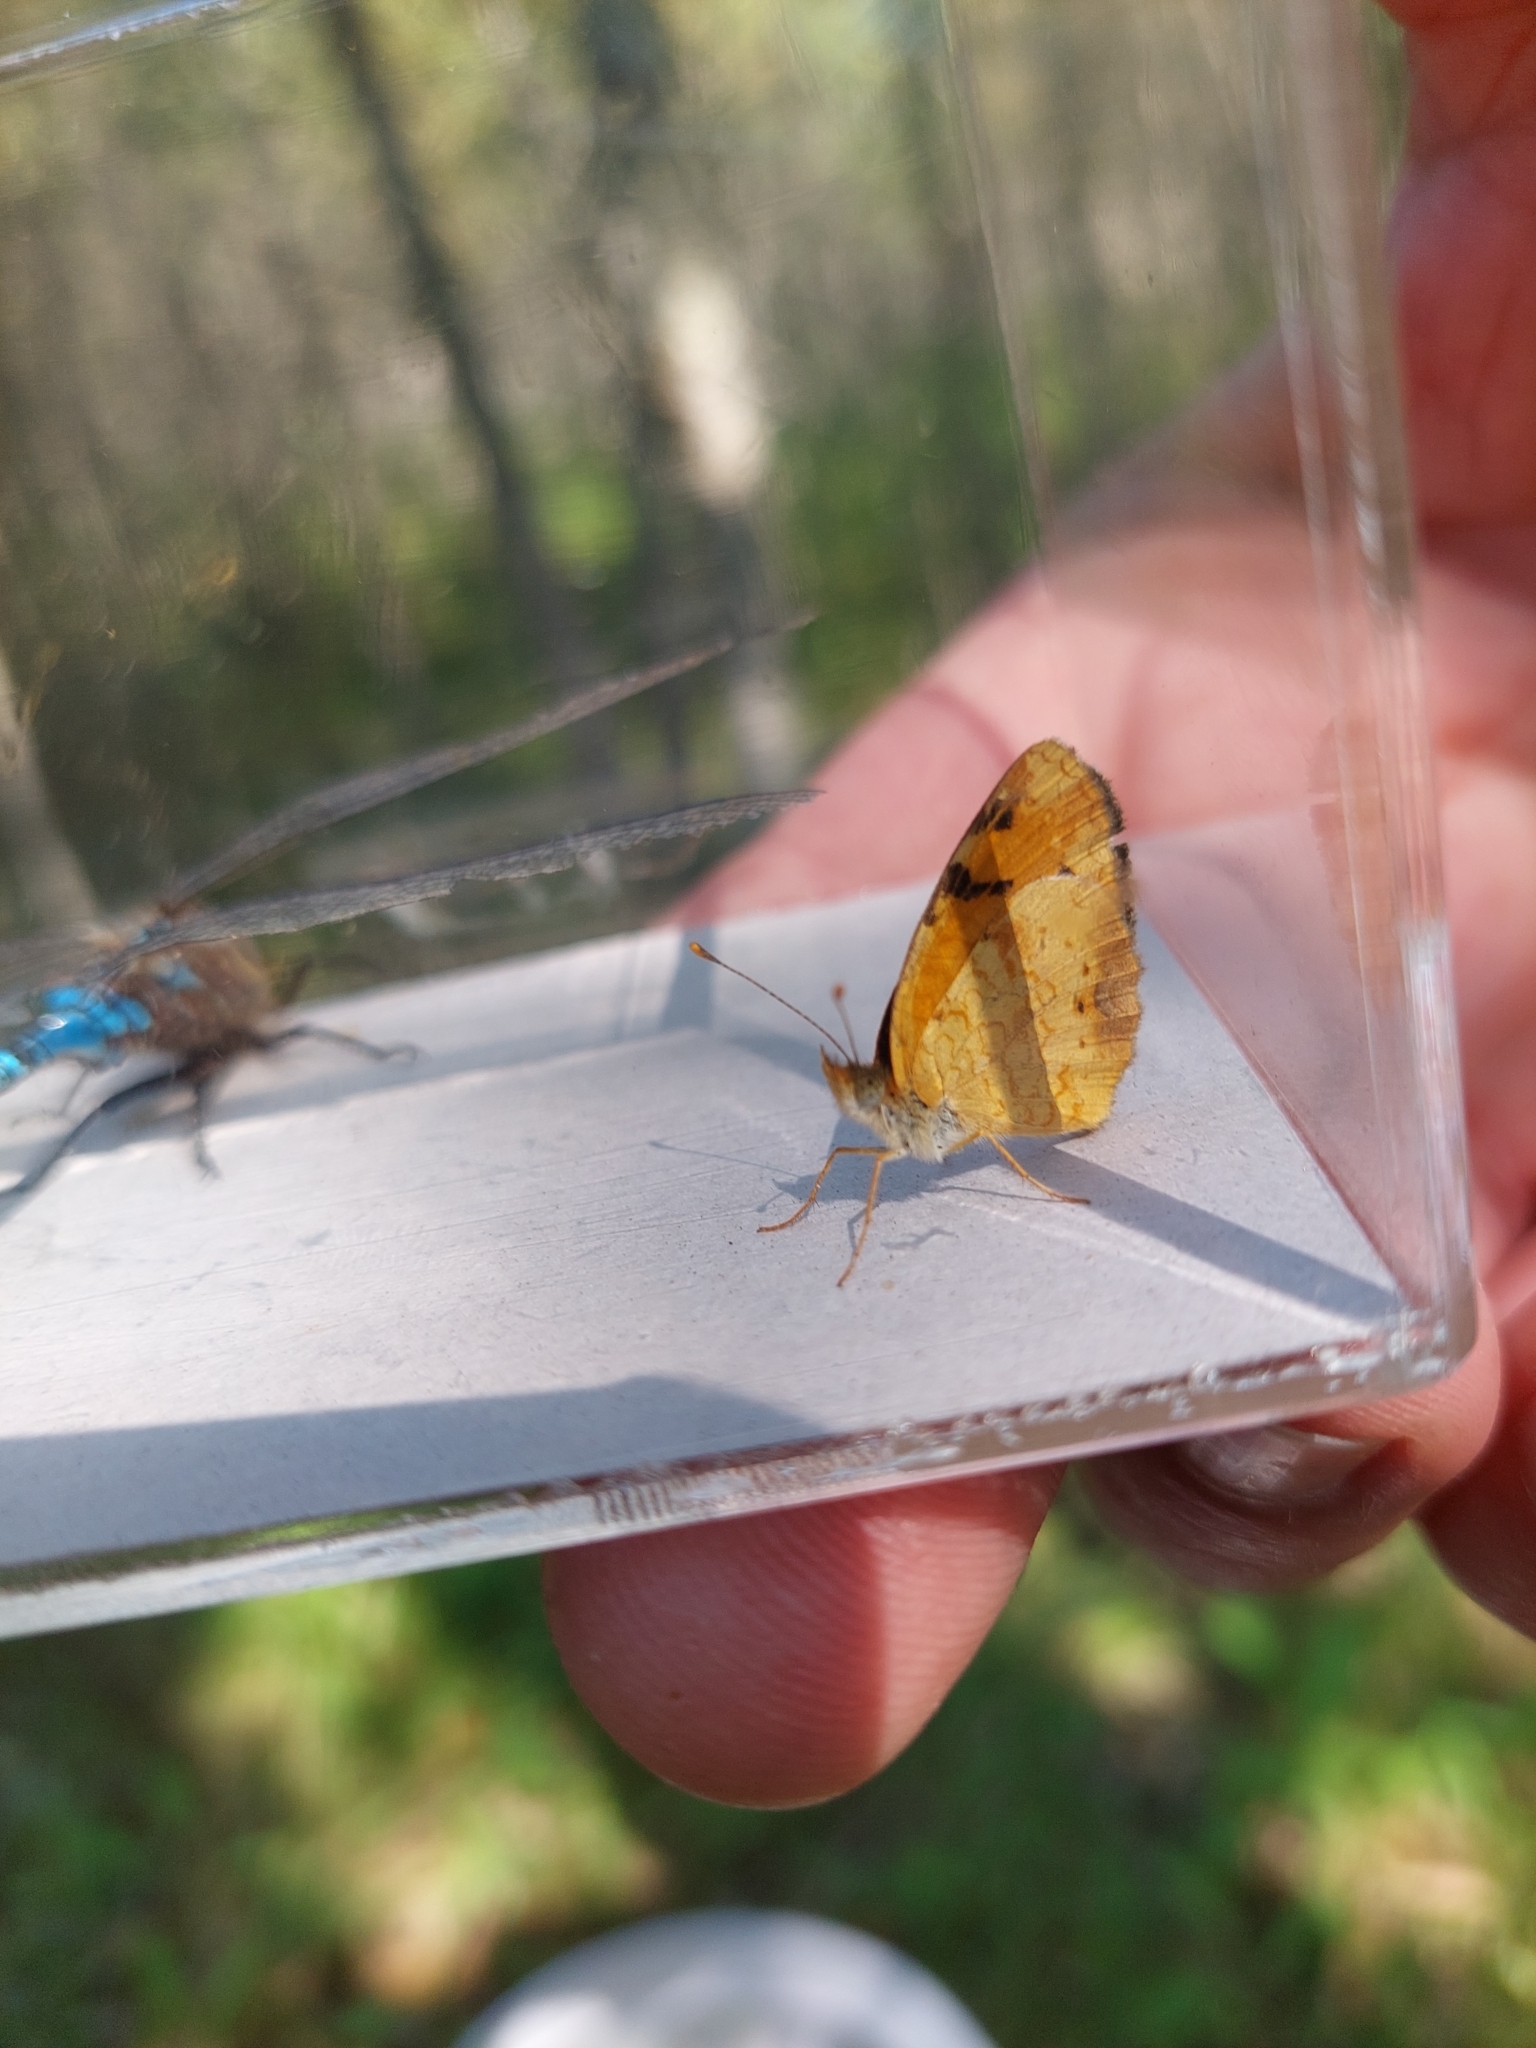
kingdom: Animalia
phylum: Arthropoda
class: Insecta
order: Lepidoptera
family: Nymphalidae
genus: Phyciodes
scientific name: Phyciodes tharos
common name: Pearl crescent
